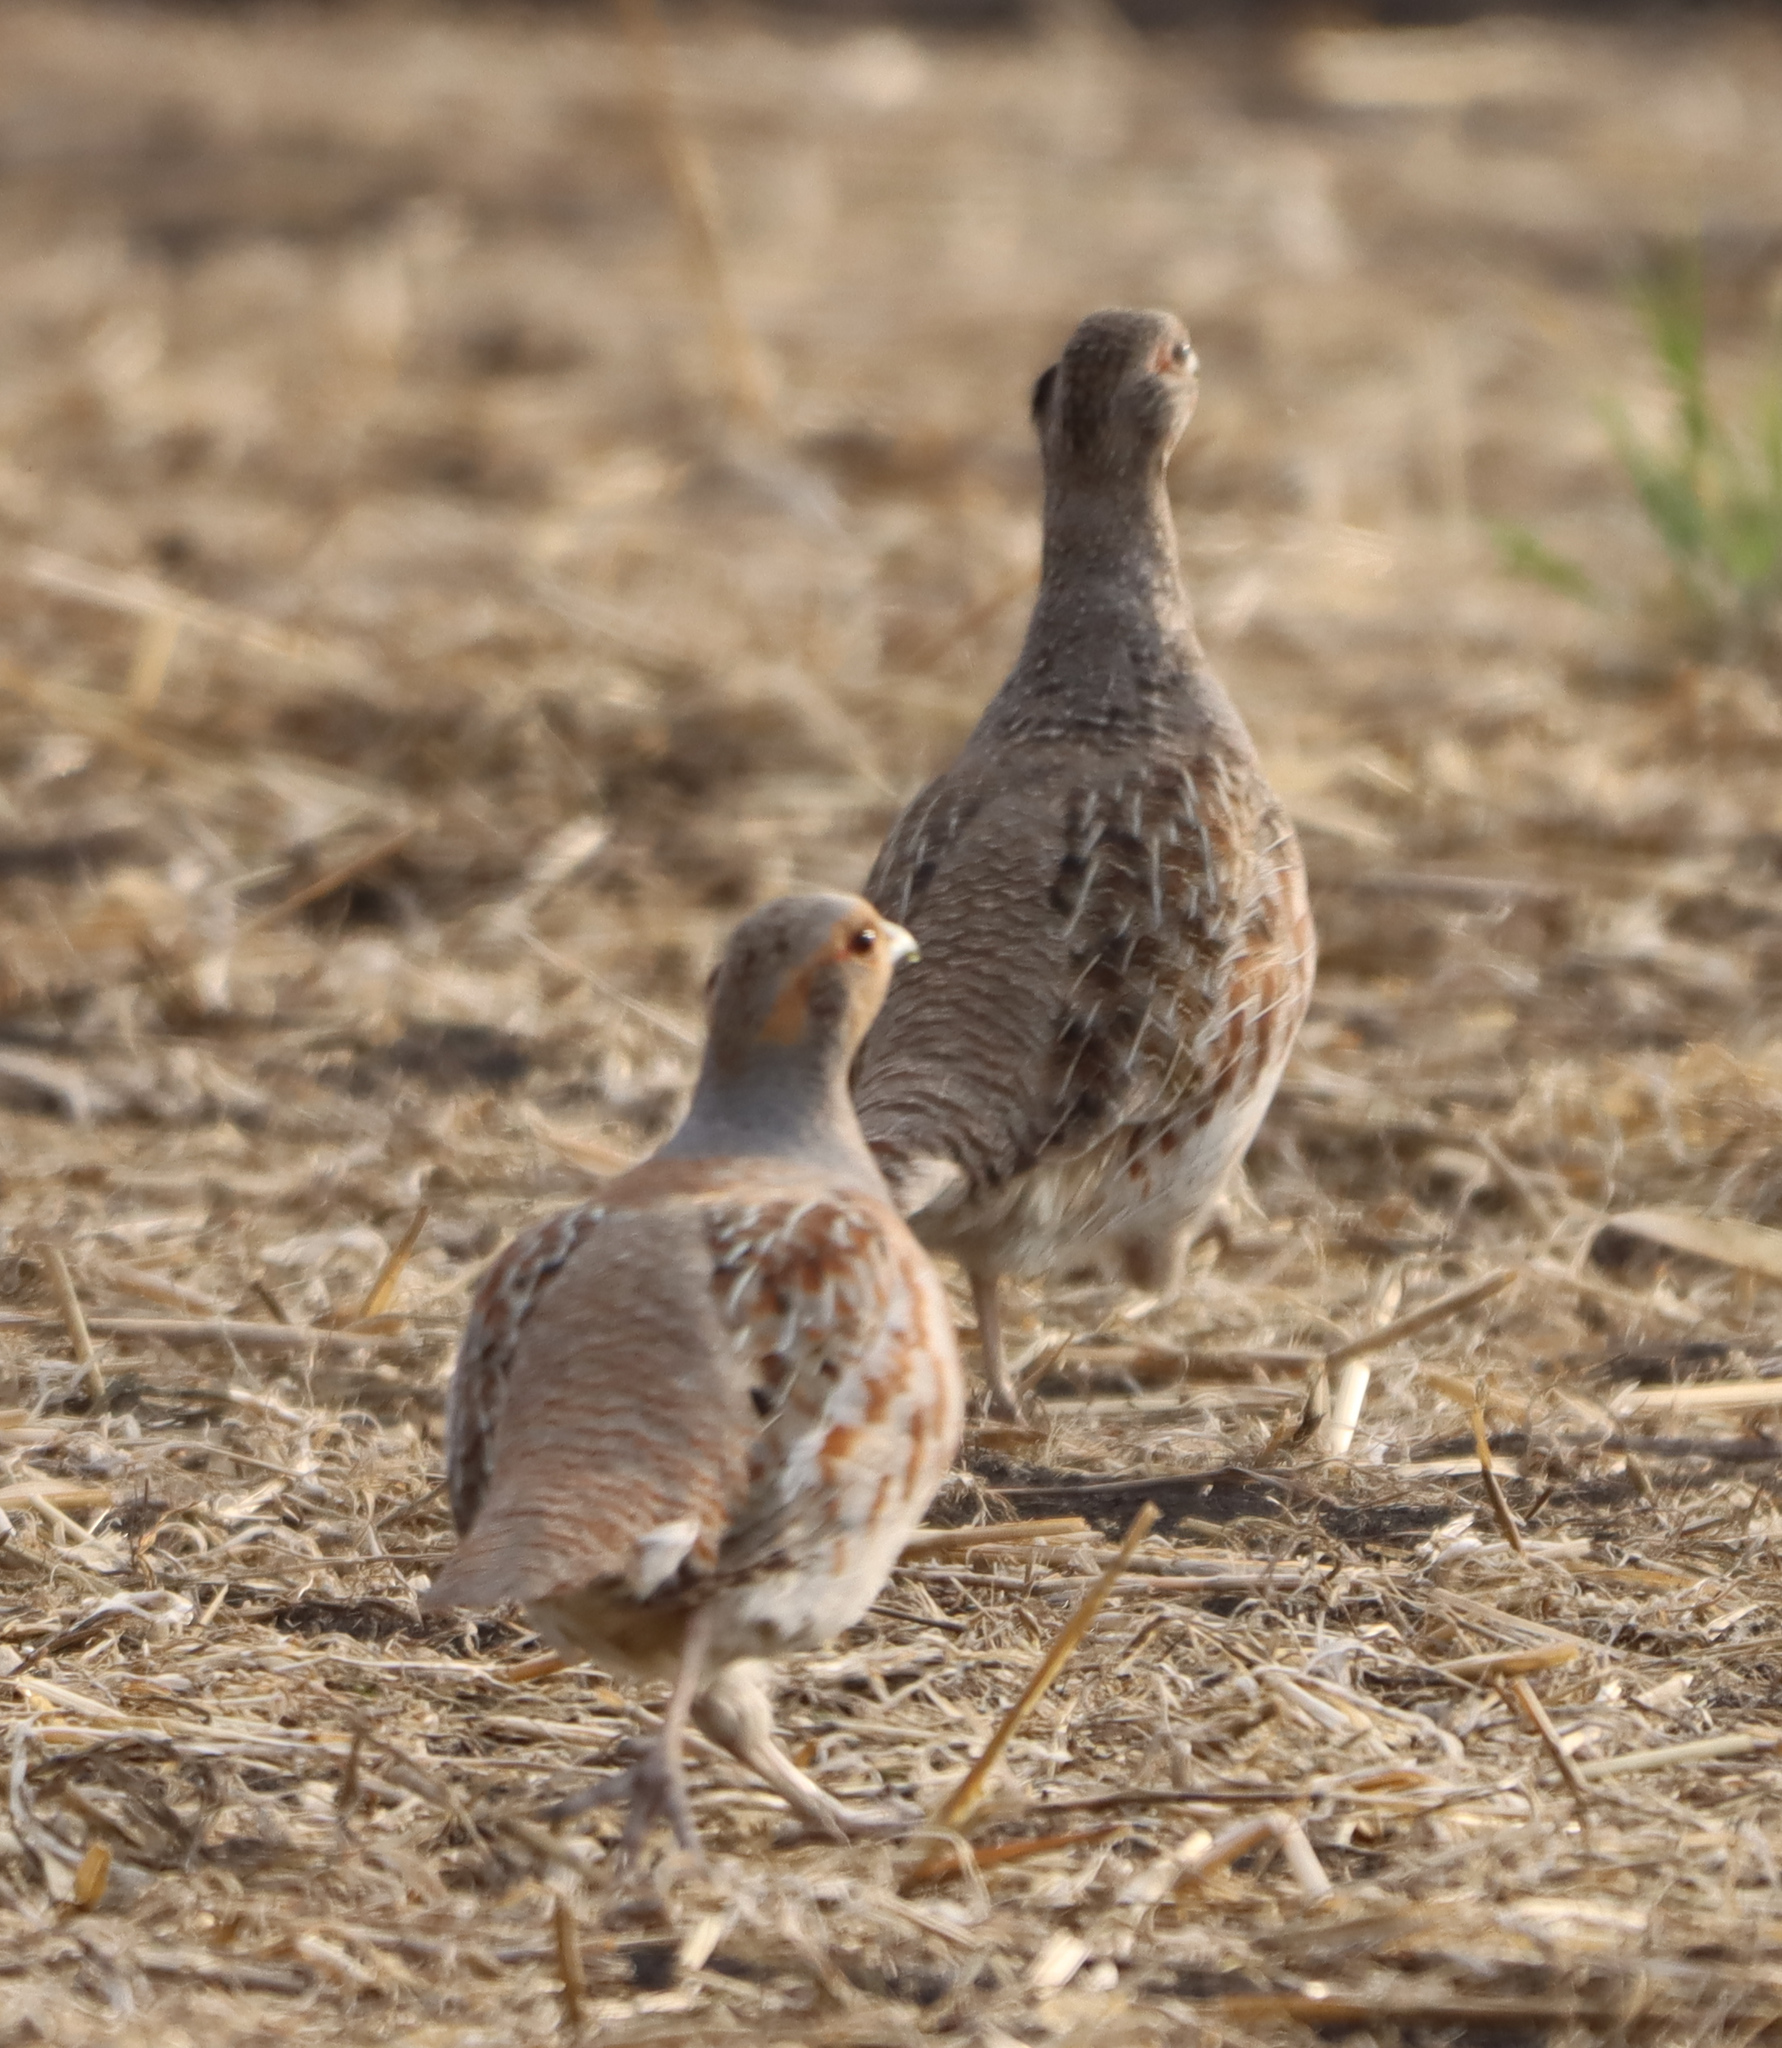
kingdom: Animalia
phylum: Chordata
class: Aves
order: Galliformes
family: Phasianidae
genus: Perdix
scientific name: Perdix perdix
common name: Grey partridge
